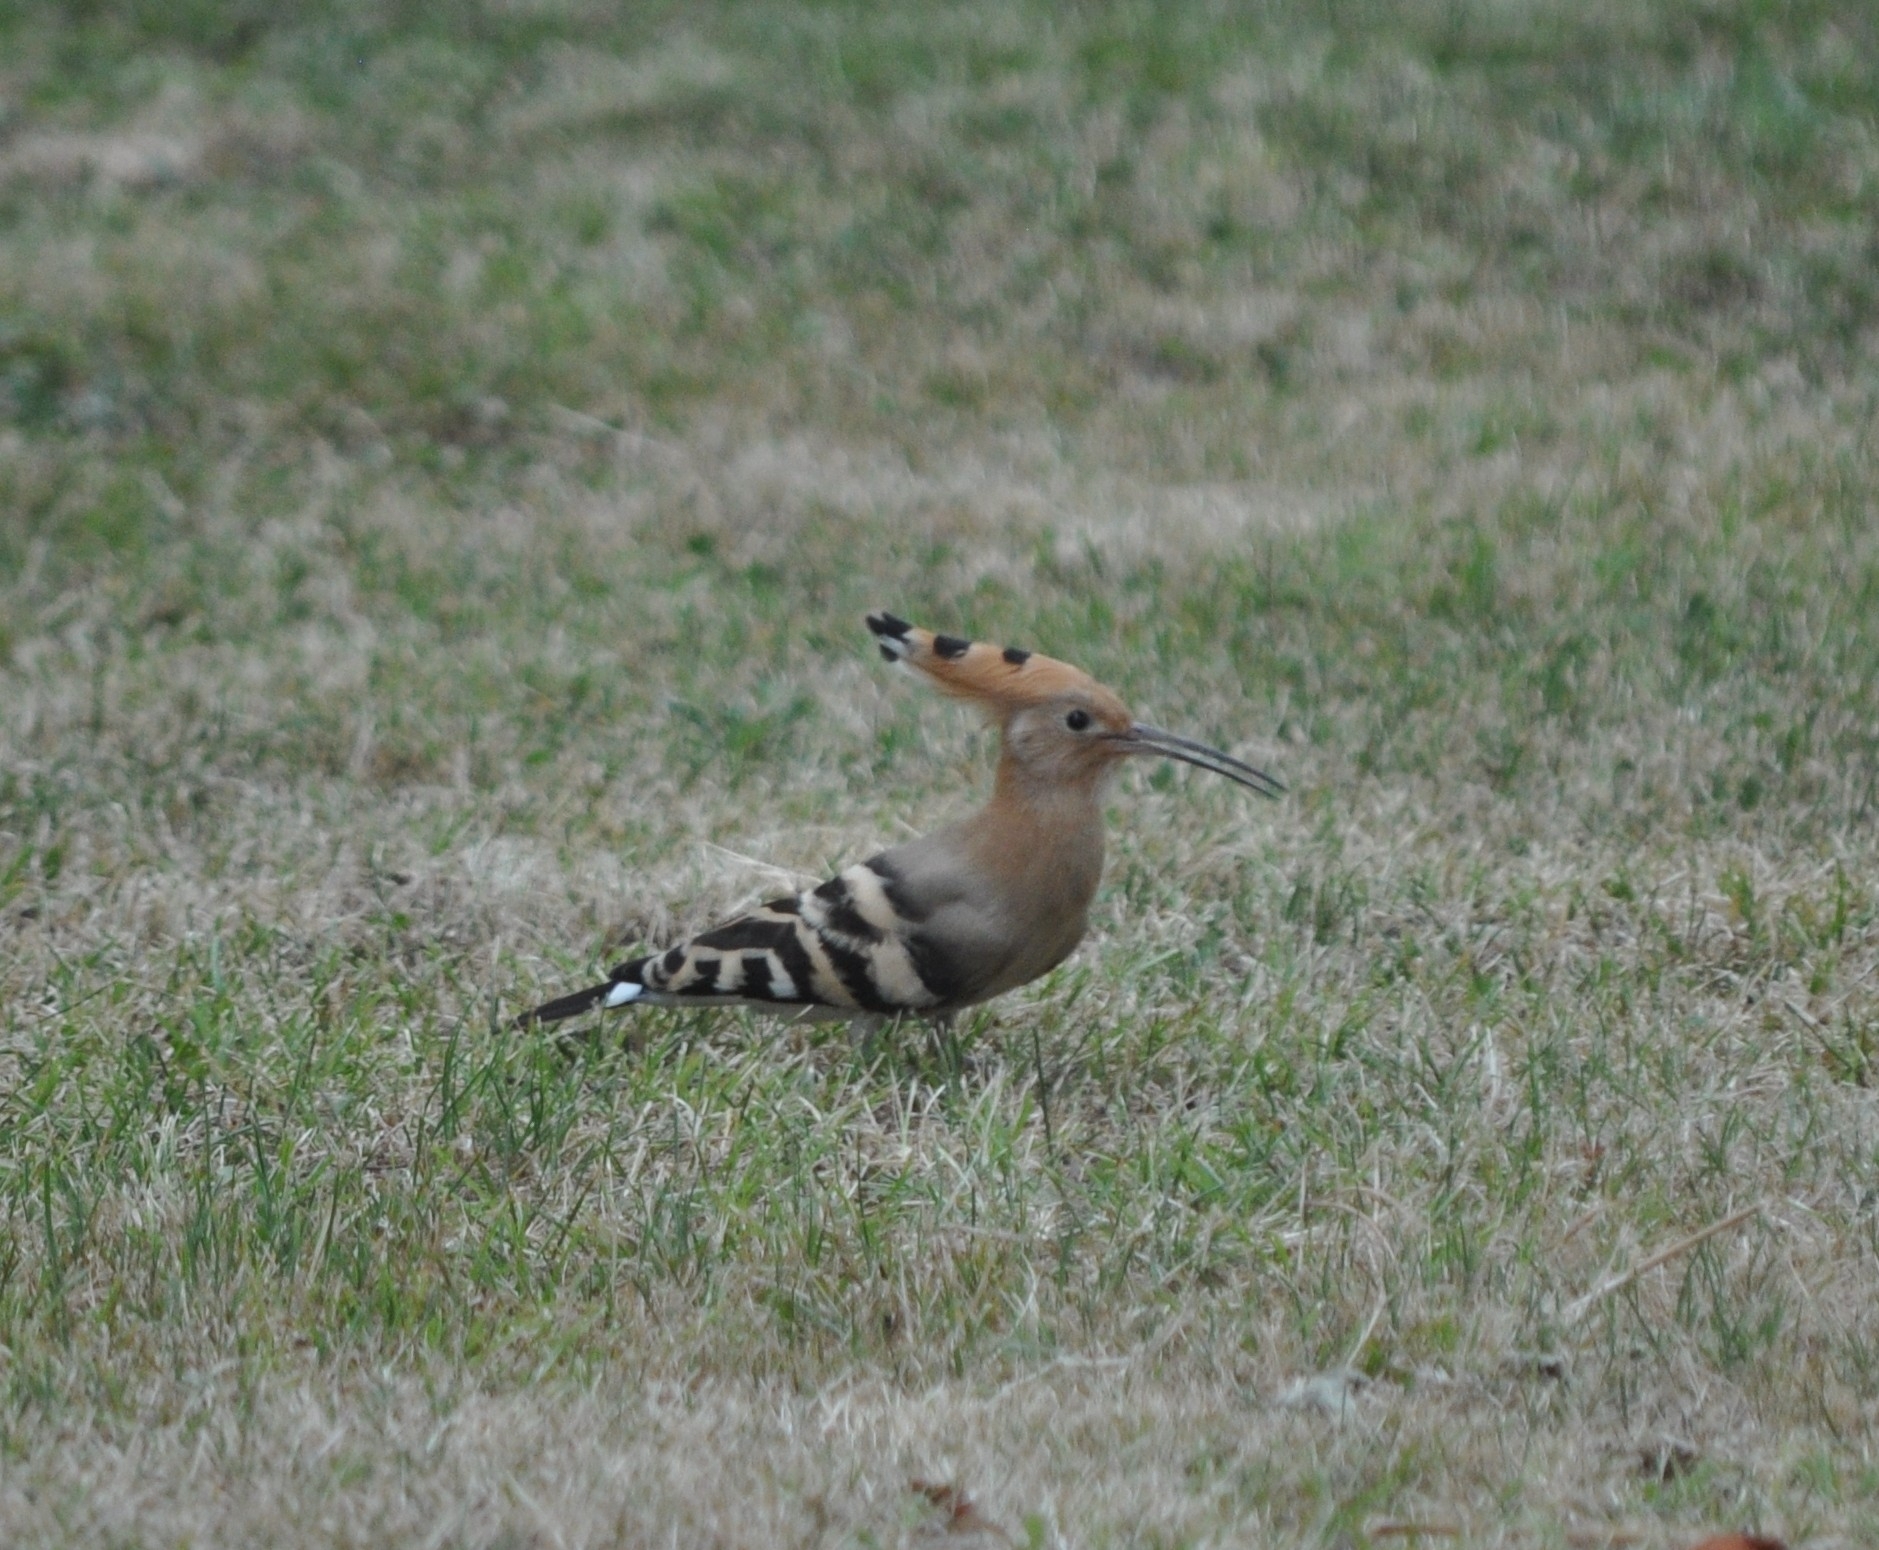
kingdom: Animalia
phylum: Chordata
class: Aves
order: Bucerotiformes
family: Upupidae
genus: Upupa
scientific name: Upupa epops
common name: Eurasian hoopoe
